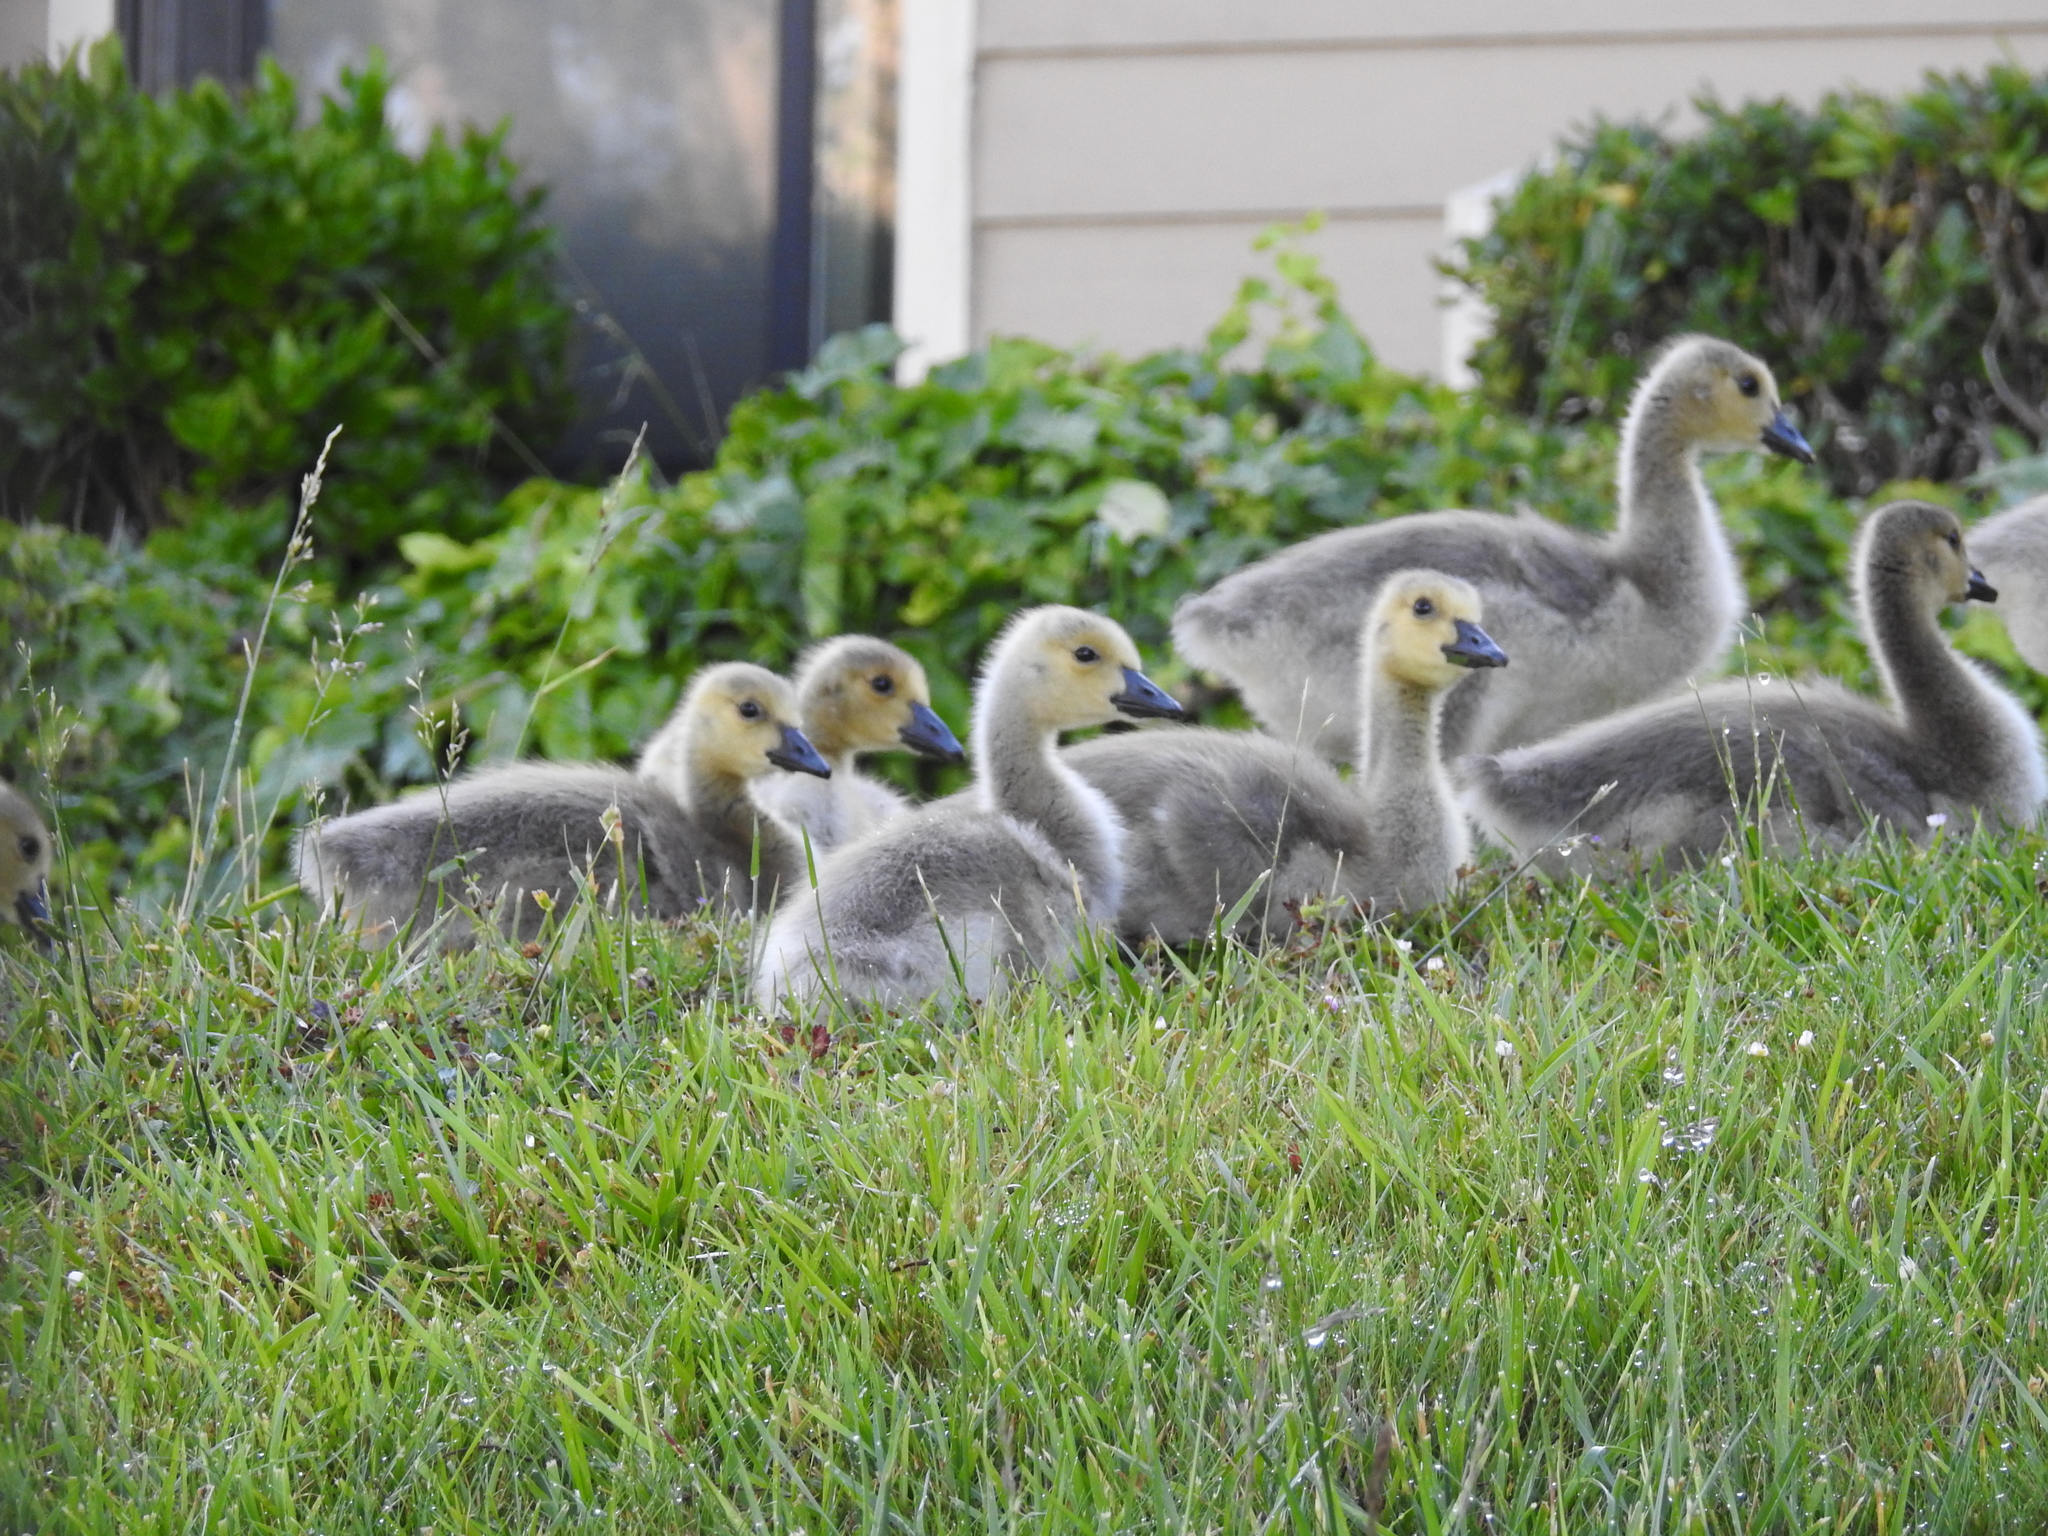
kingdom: Animalia
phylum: Chordata
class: Aves
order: Anseriformes
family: Anatidae
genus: Branta
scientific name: Branta canadensis
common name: Canada goose
